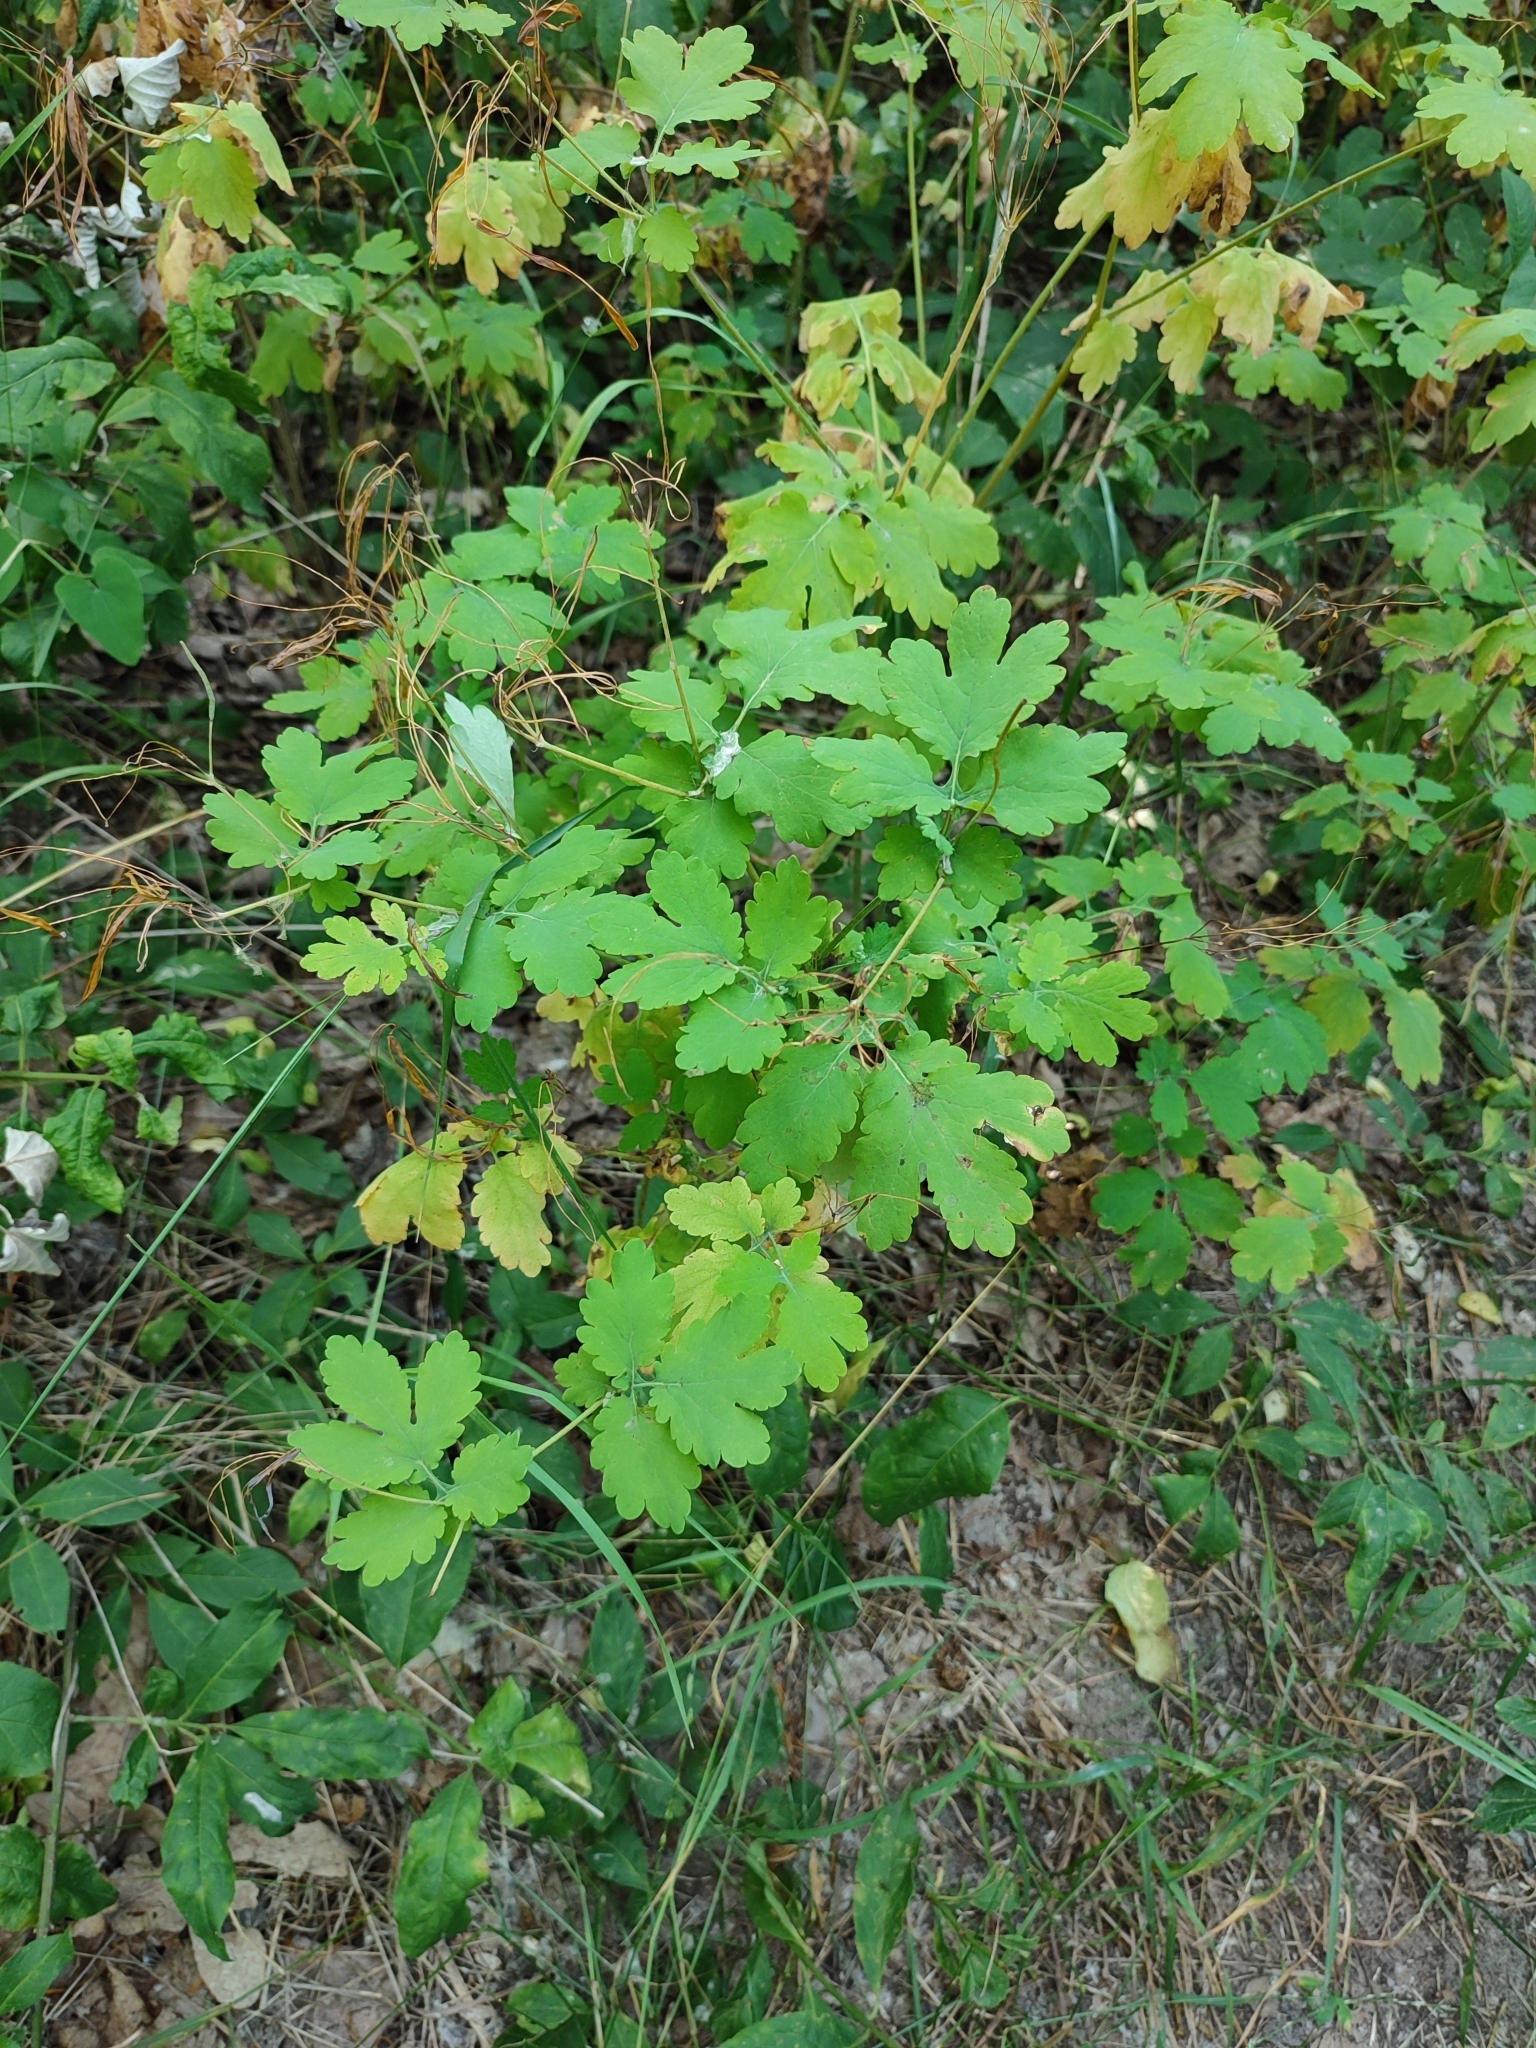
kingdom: Plantae
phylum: Tracheophyta
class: Magnoliopsida
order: Ranunculales
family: Papaveraceae
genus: Chelidonium
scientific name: Chelidonium majus
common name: Greater celandine
